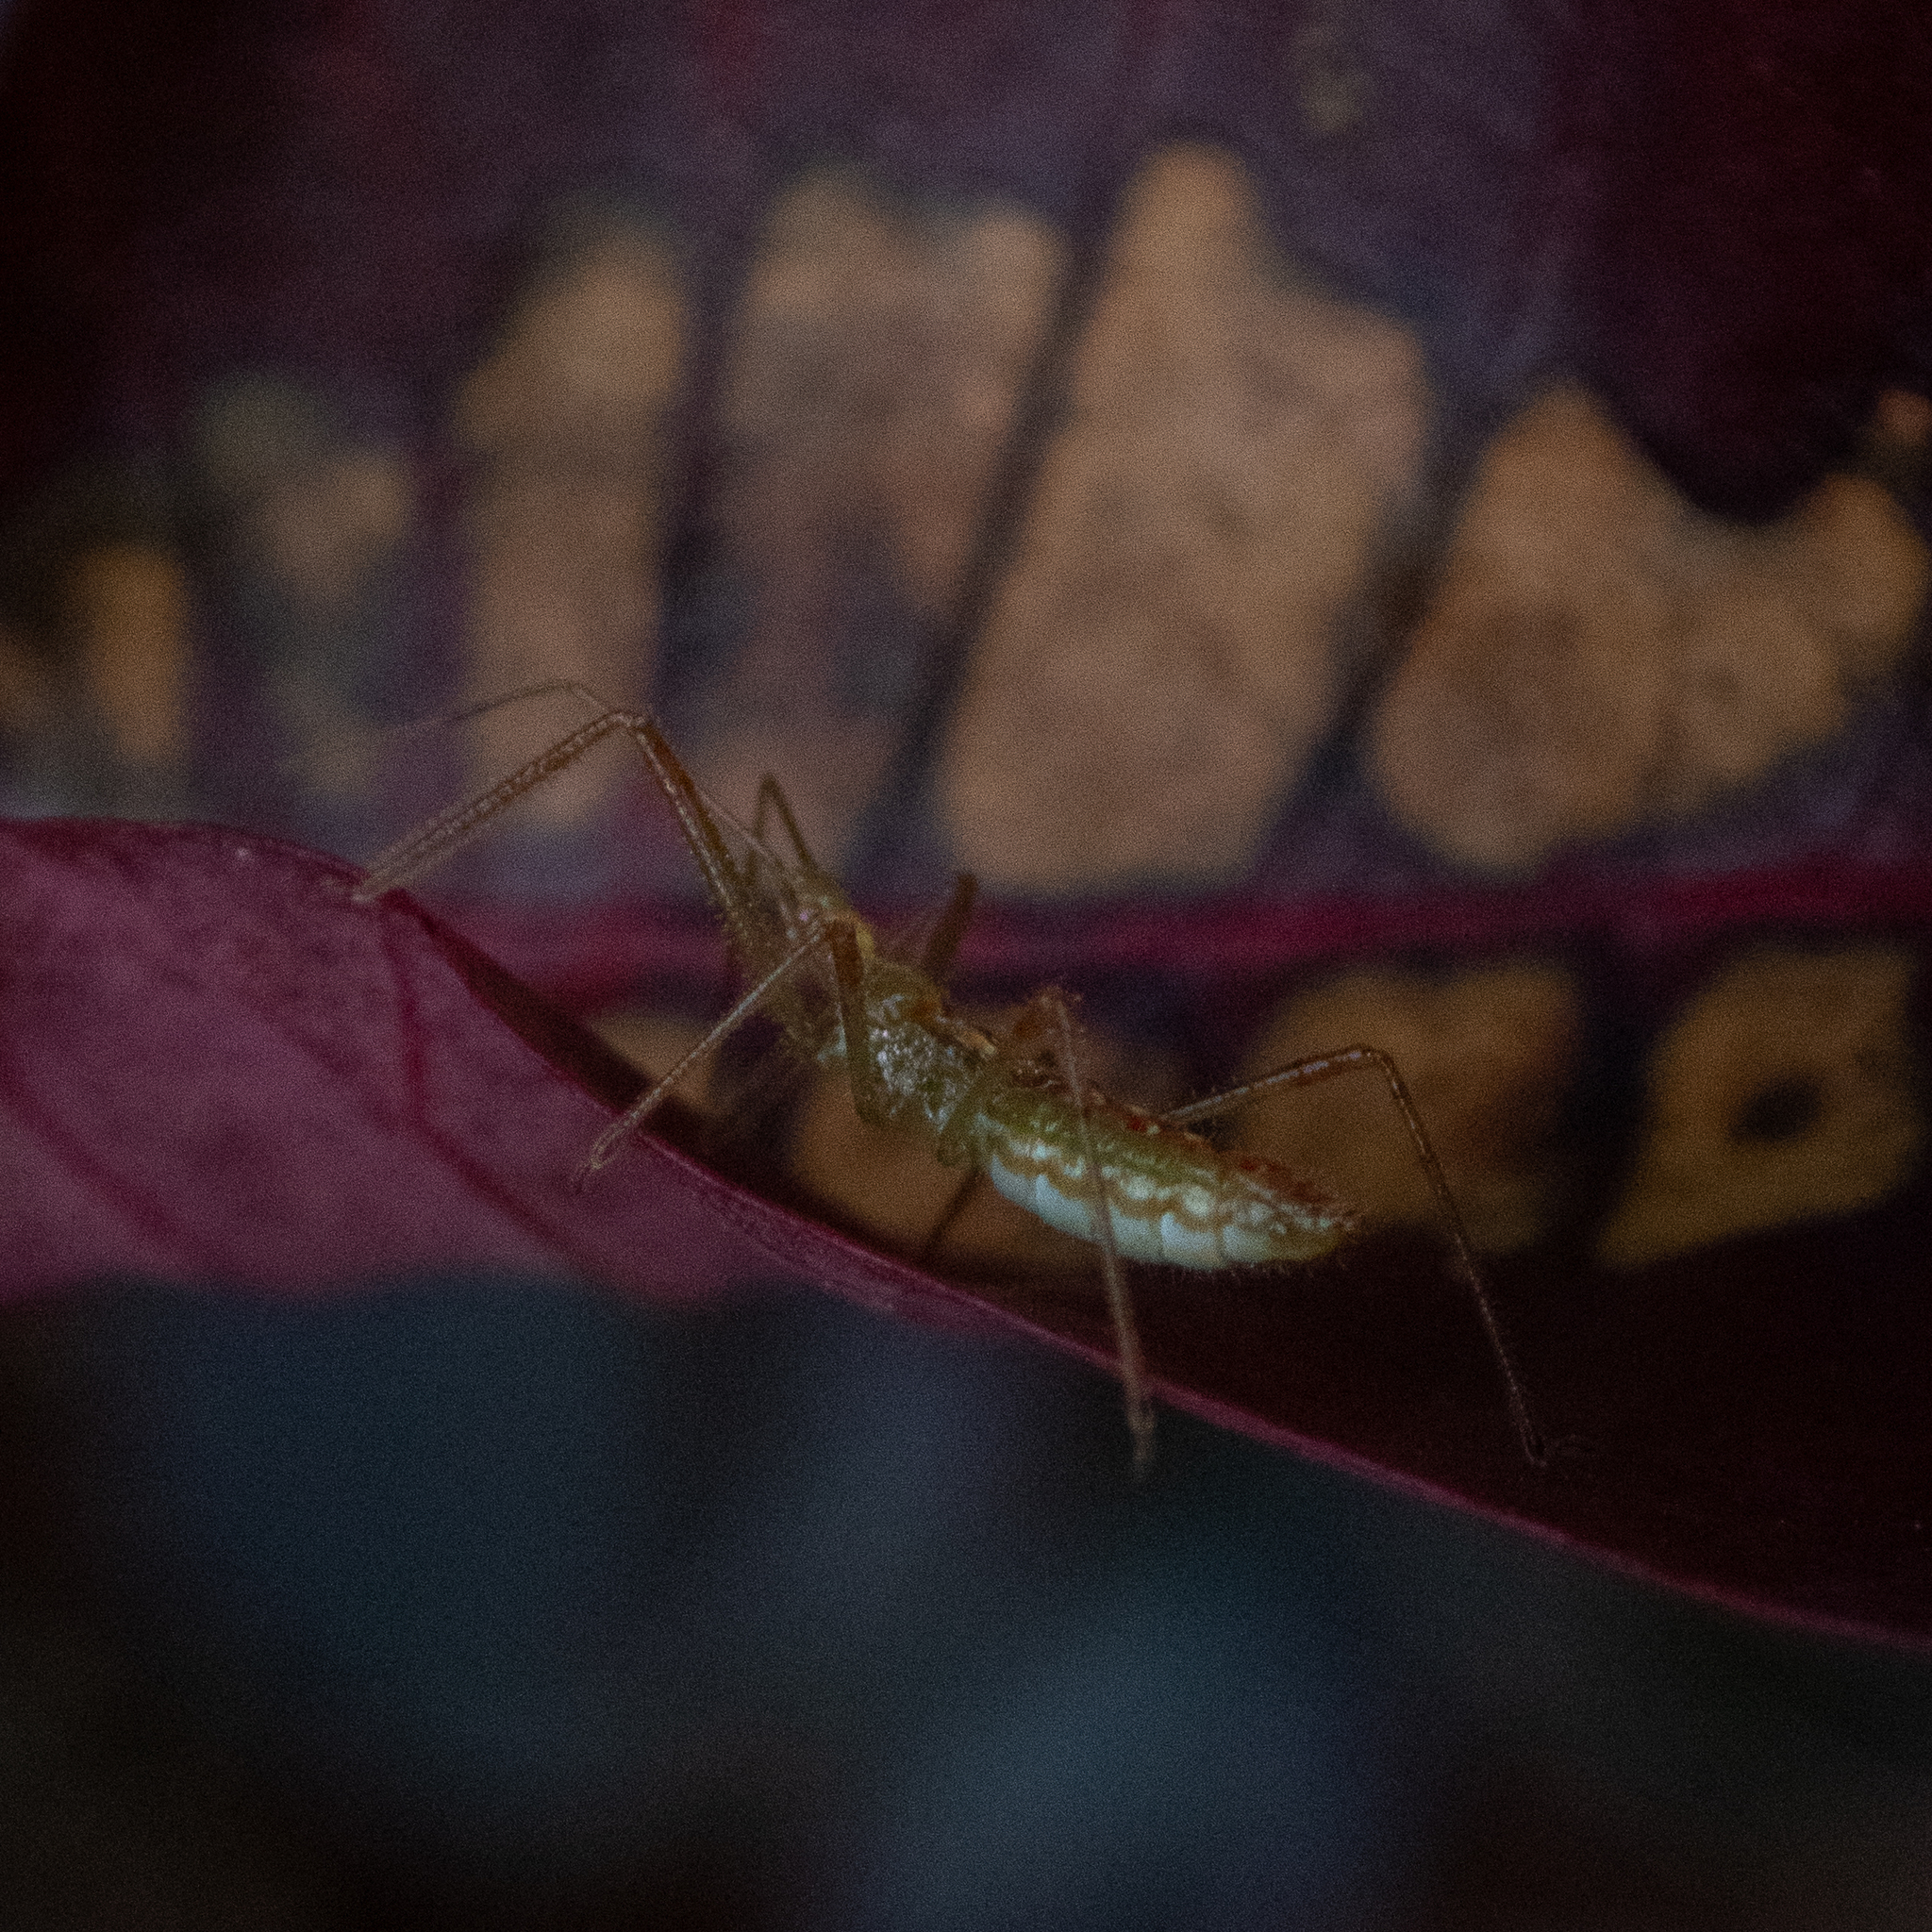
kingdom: Animalia
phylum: Arthropoda
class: Insecta
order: Hemiptera
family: Reduviidae
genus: Zelus
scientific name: Zelus luridus
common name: Pale green assassin bug
